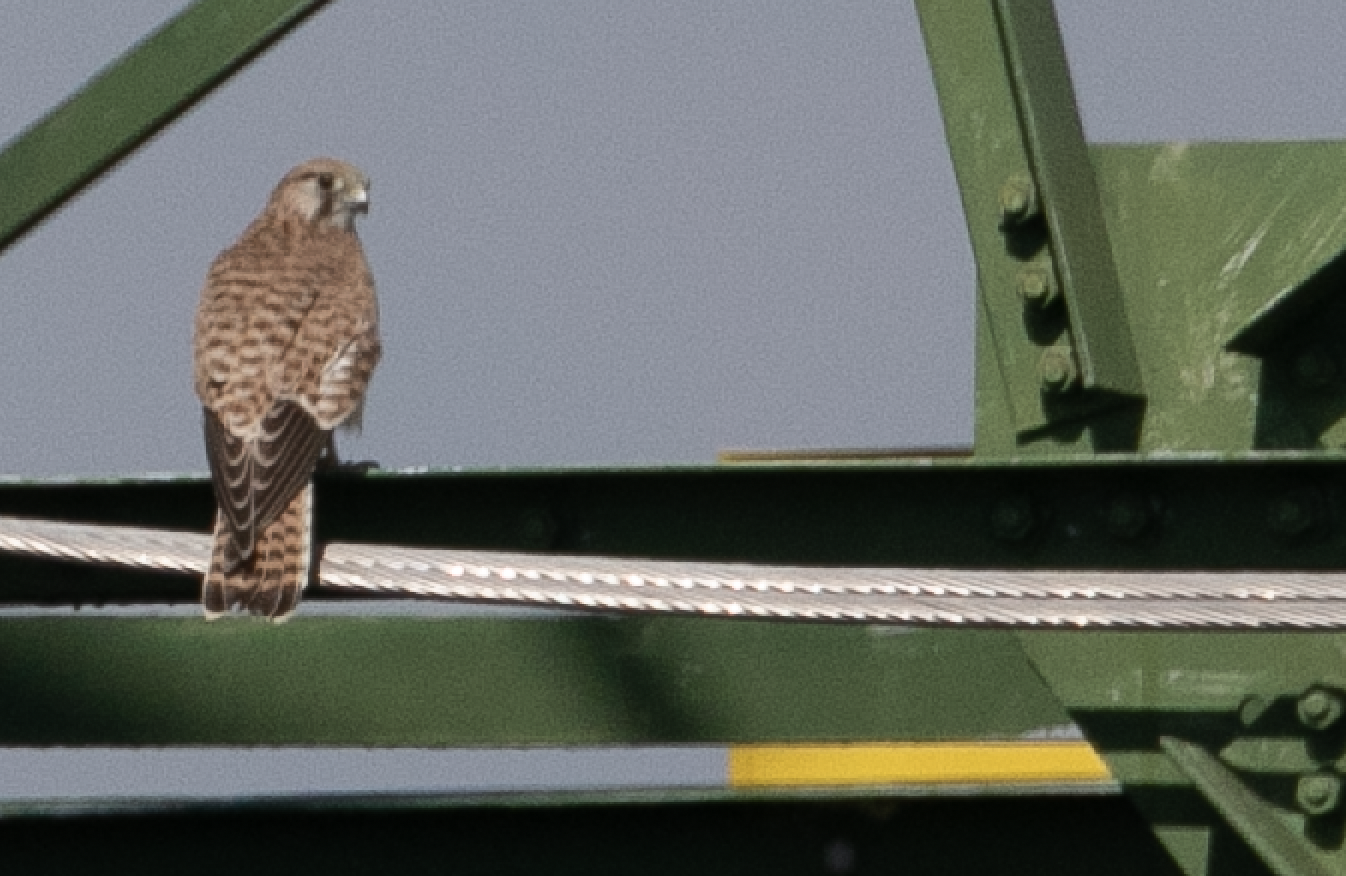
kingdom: Animalia
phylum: Chordata
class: Aves
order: Falconiformes
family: Falconidae
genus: Falco
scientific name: Falco tinnunculus
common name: Common kestrel
